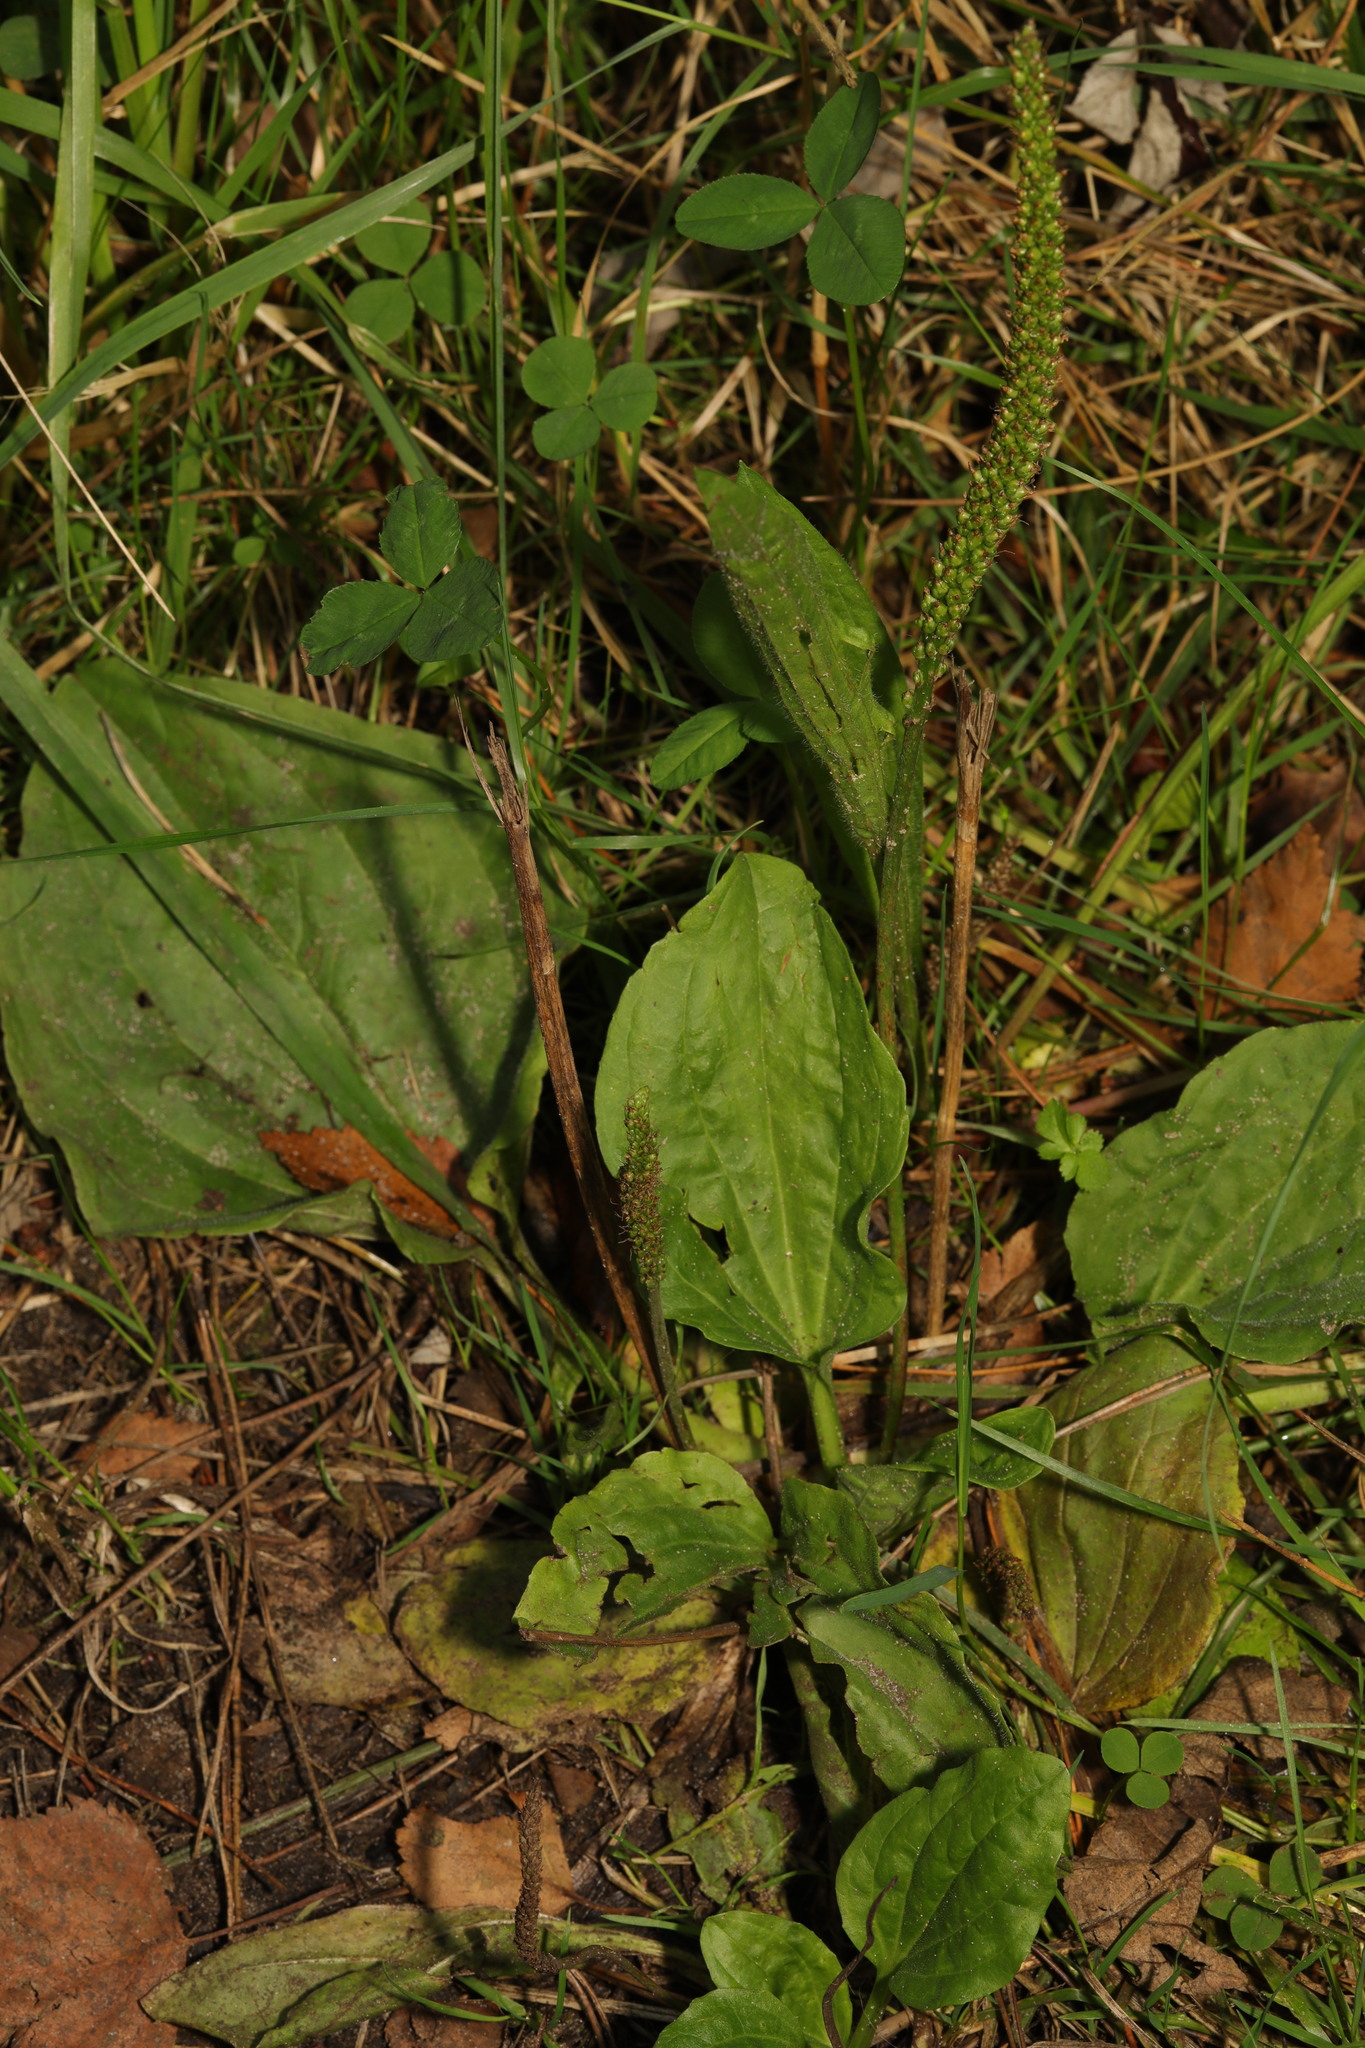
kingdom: Plantae
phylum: Tracheophyta
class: Magnoliopsida
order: Lamiales
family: Plantaginaceae
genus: Plantago
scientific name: Plantago major
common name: Common plantain
